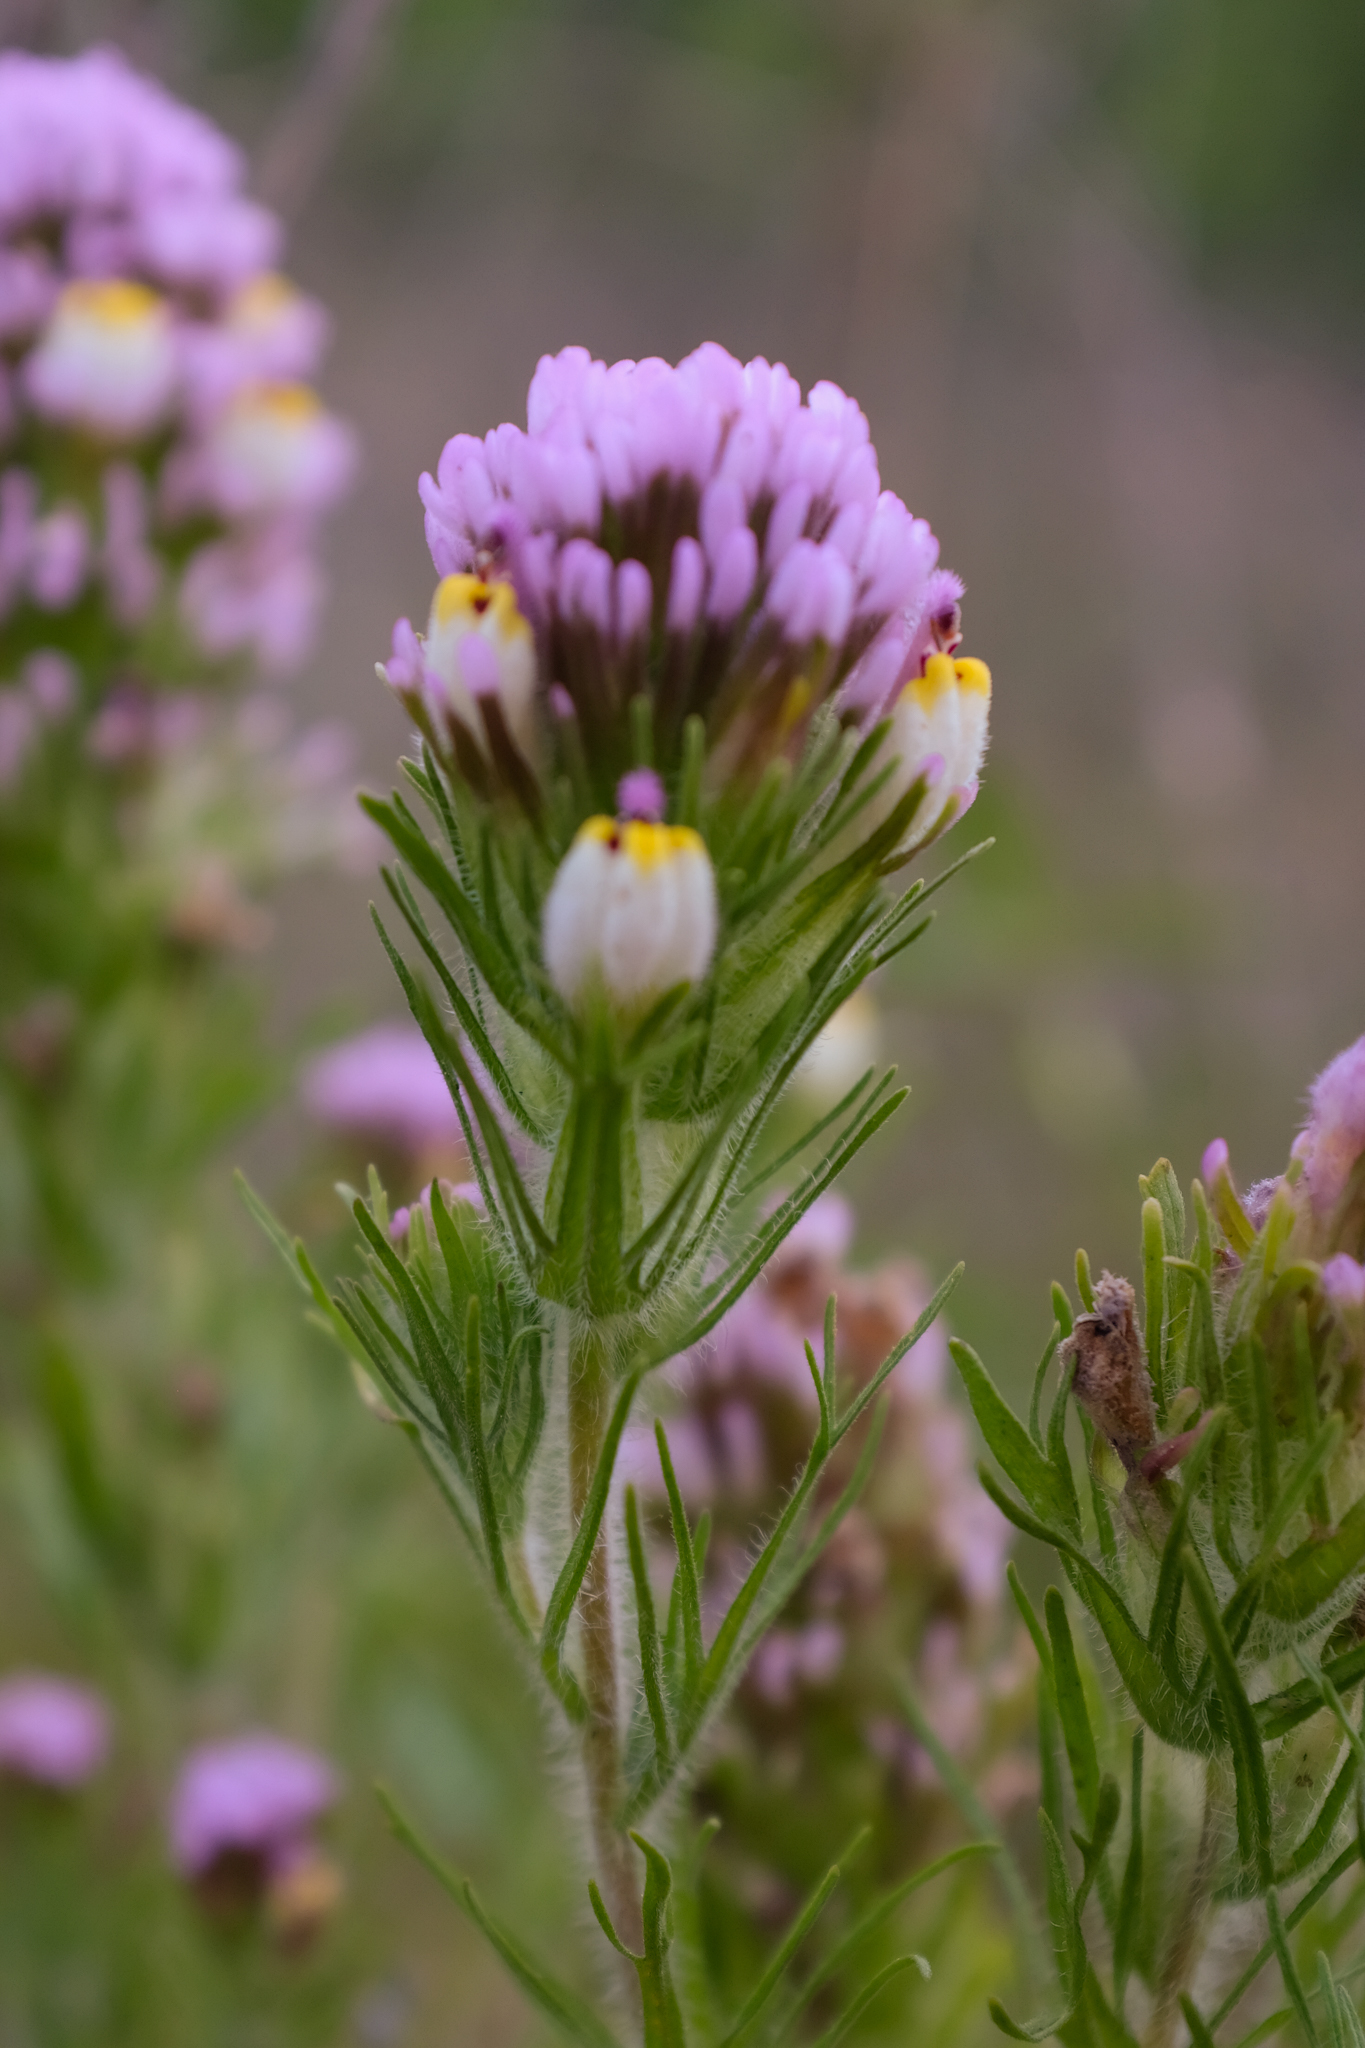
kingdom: Plantae
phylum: Tracheophyta
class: Magnoliopsida
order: Lamiales
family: Orobanchaceae
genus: Castilleja
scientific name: Castilleja exserta
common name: Purple owl-clover
